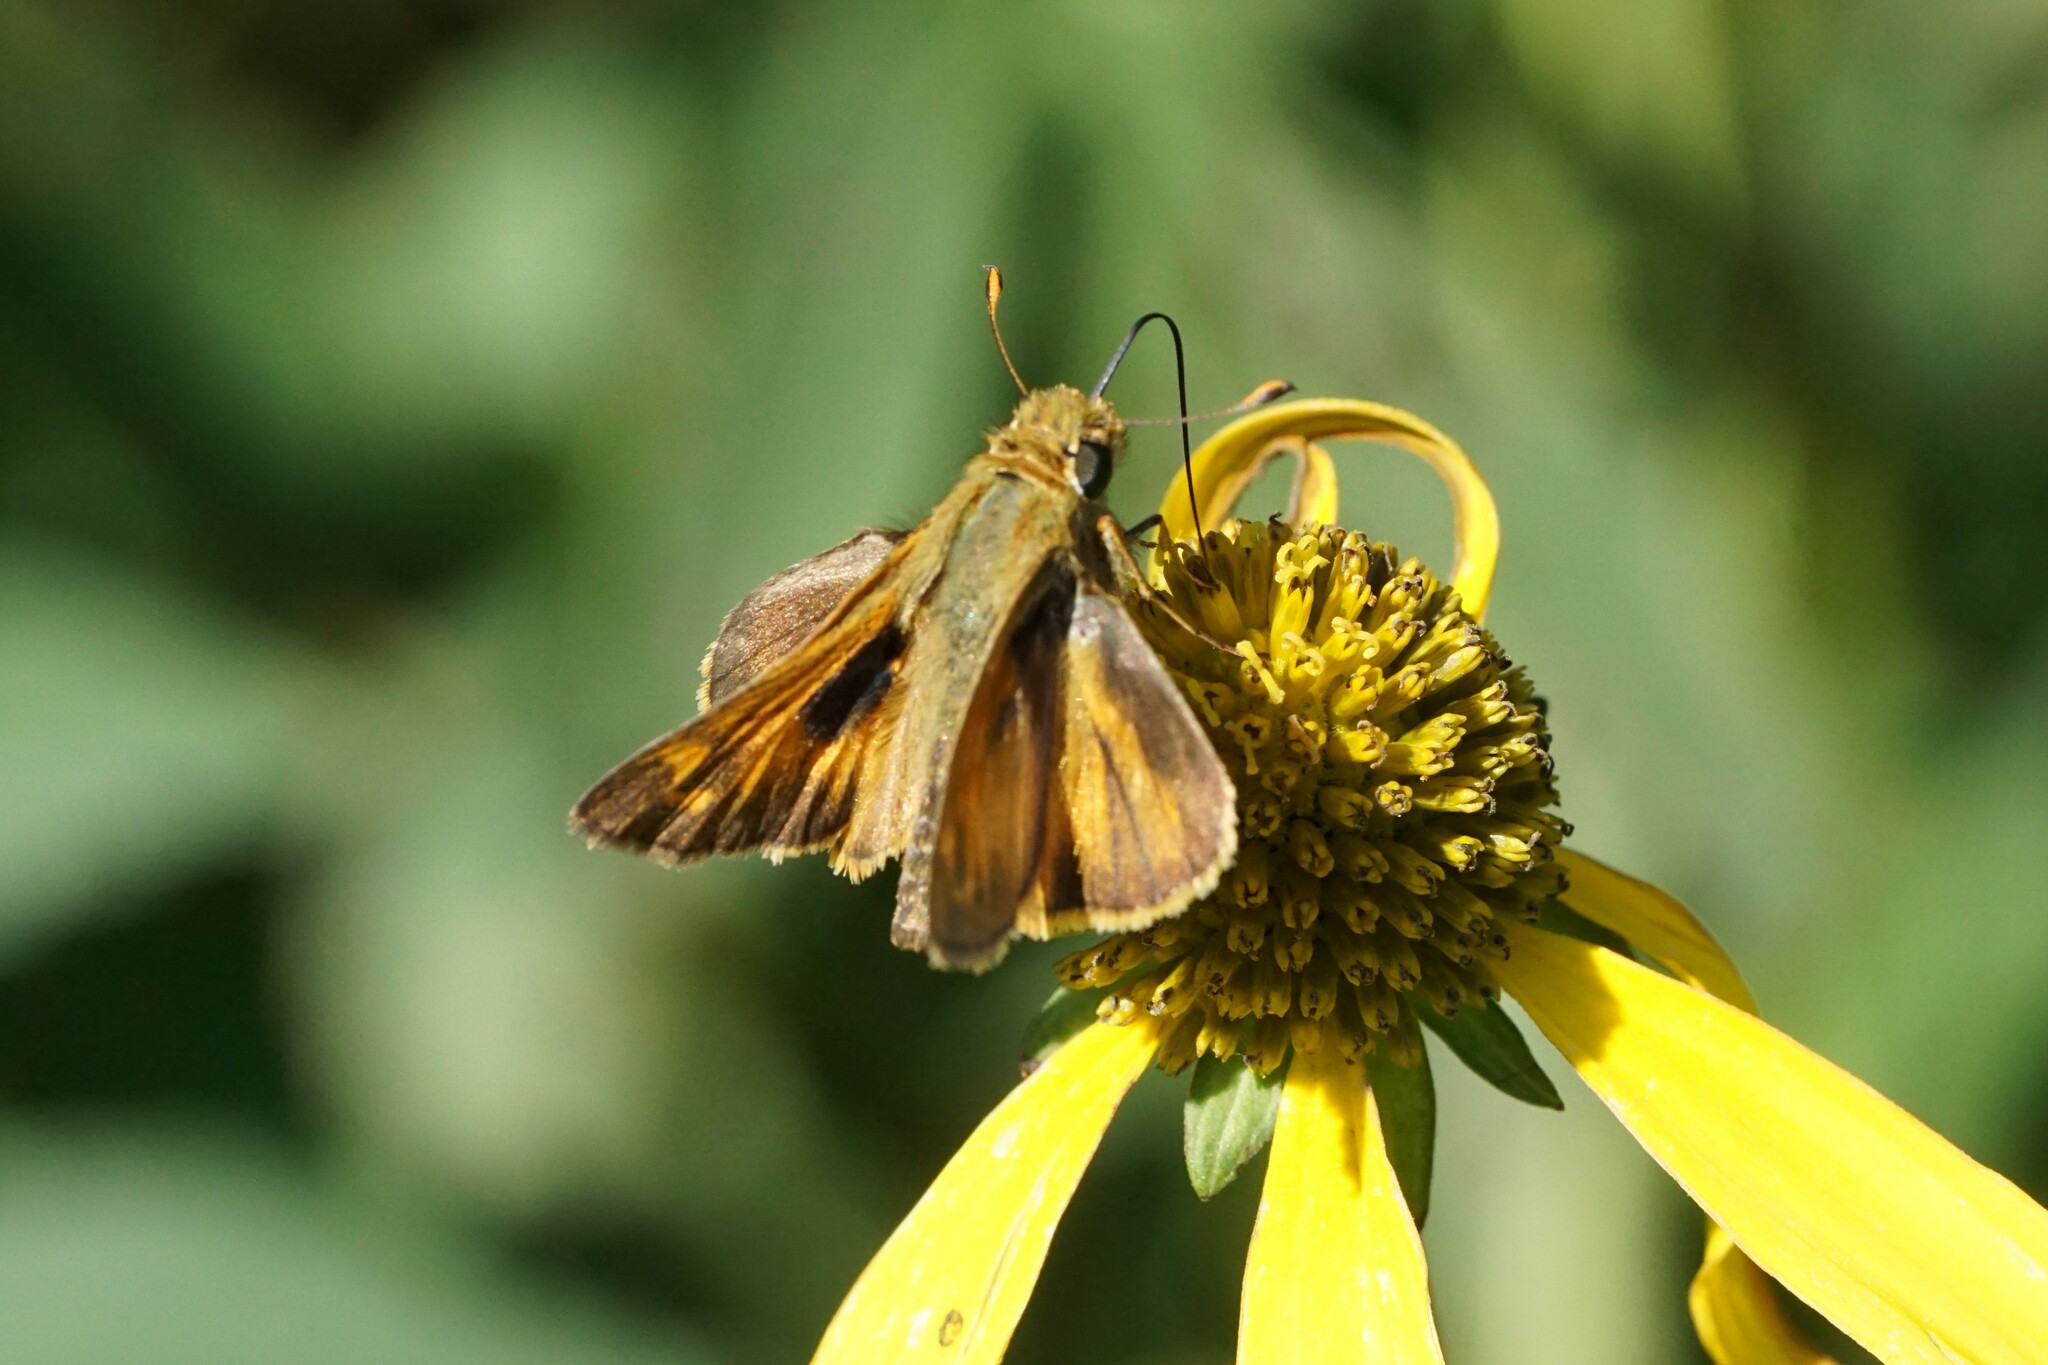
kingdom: Animalia
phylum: Arthropoda
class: Insecta
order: Lepidoptera
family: Hesperiidae
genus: Atalopedes
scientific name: Atalopedes
